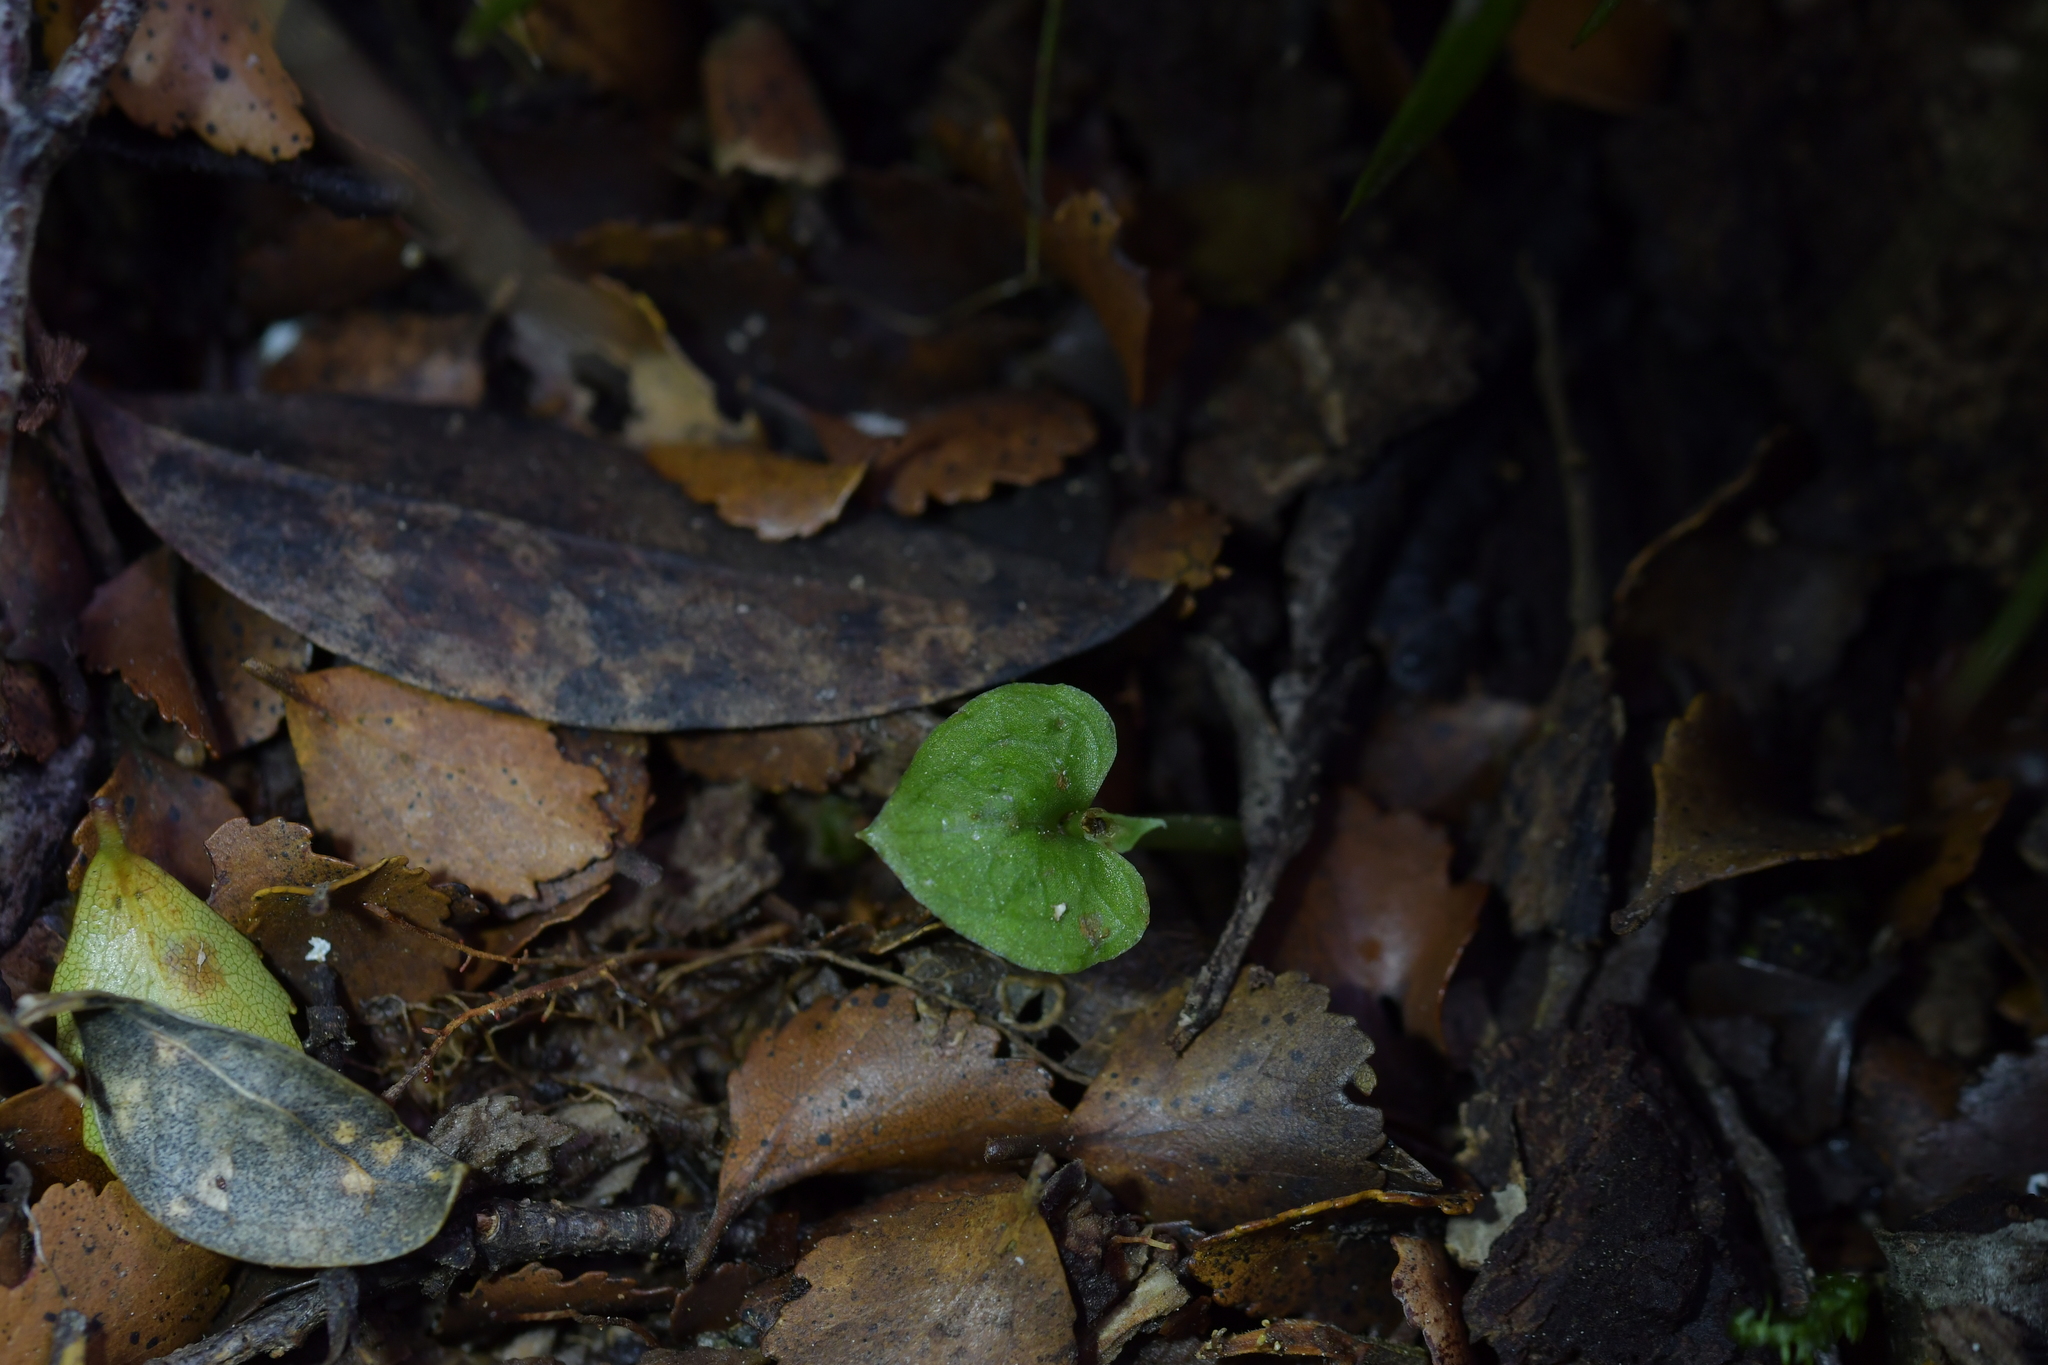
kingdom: Plantae
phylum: Tracheophyta
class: Liliopsida
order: Asparagales
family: Orchidaceae
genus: Corybas
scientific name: Corybas cheesemanii
